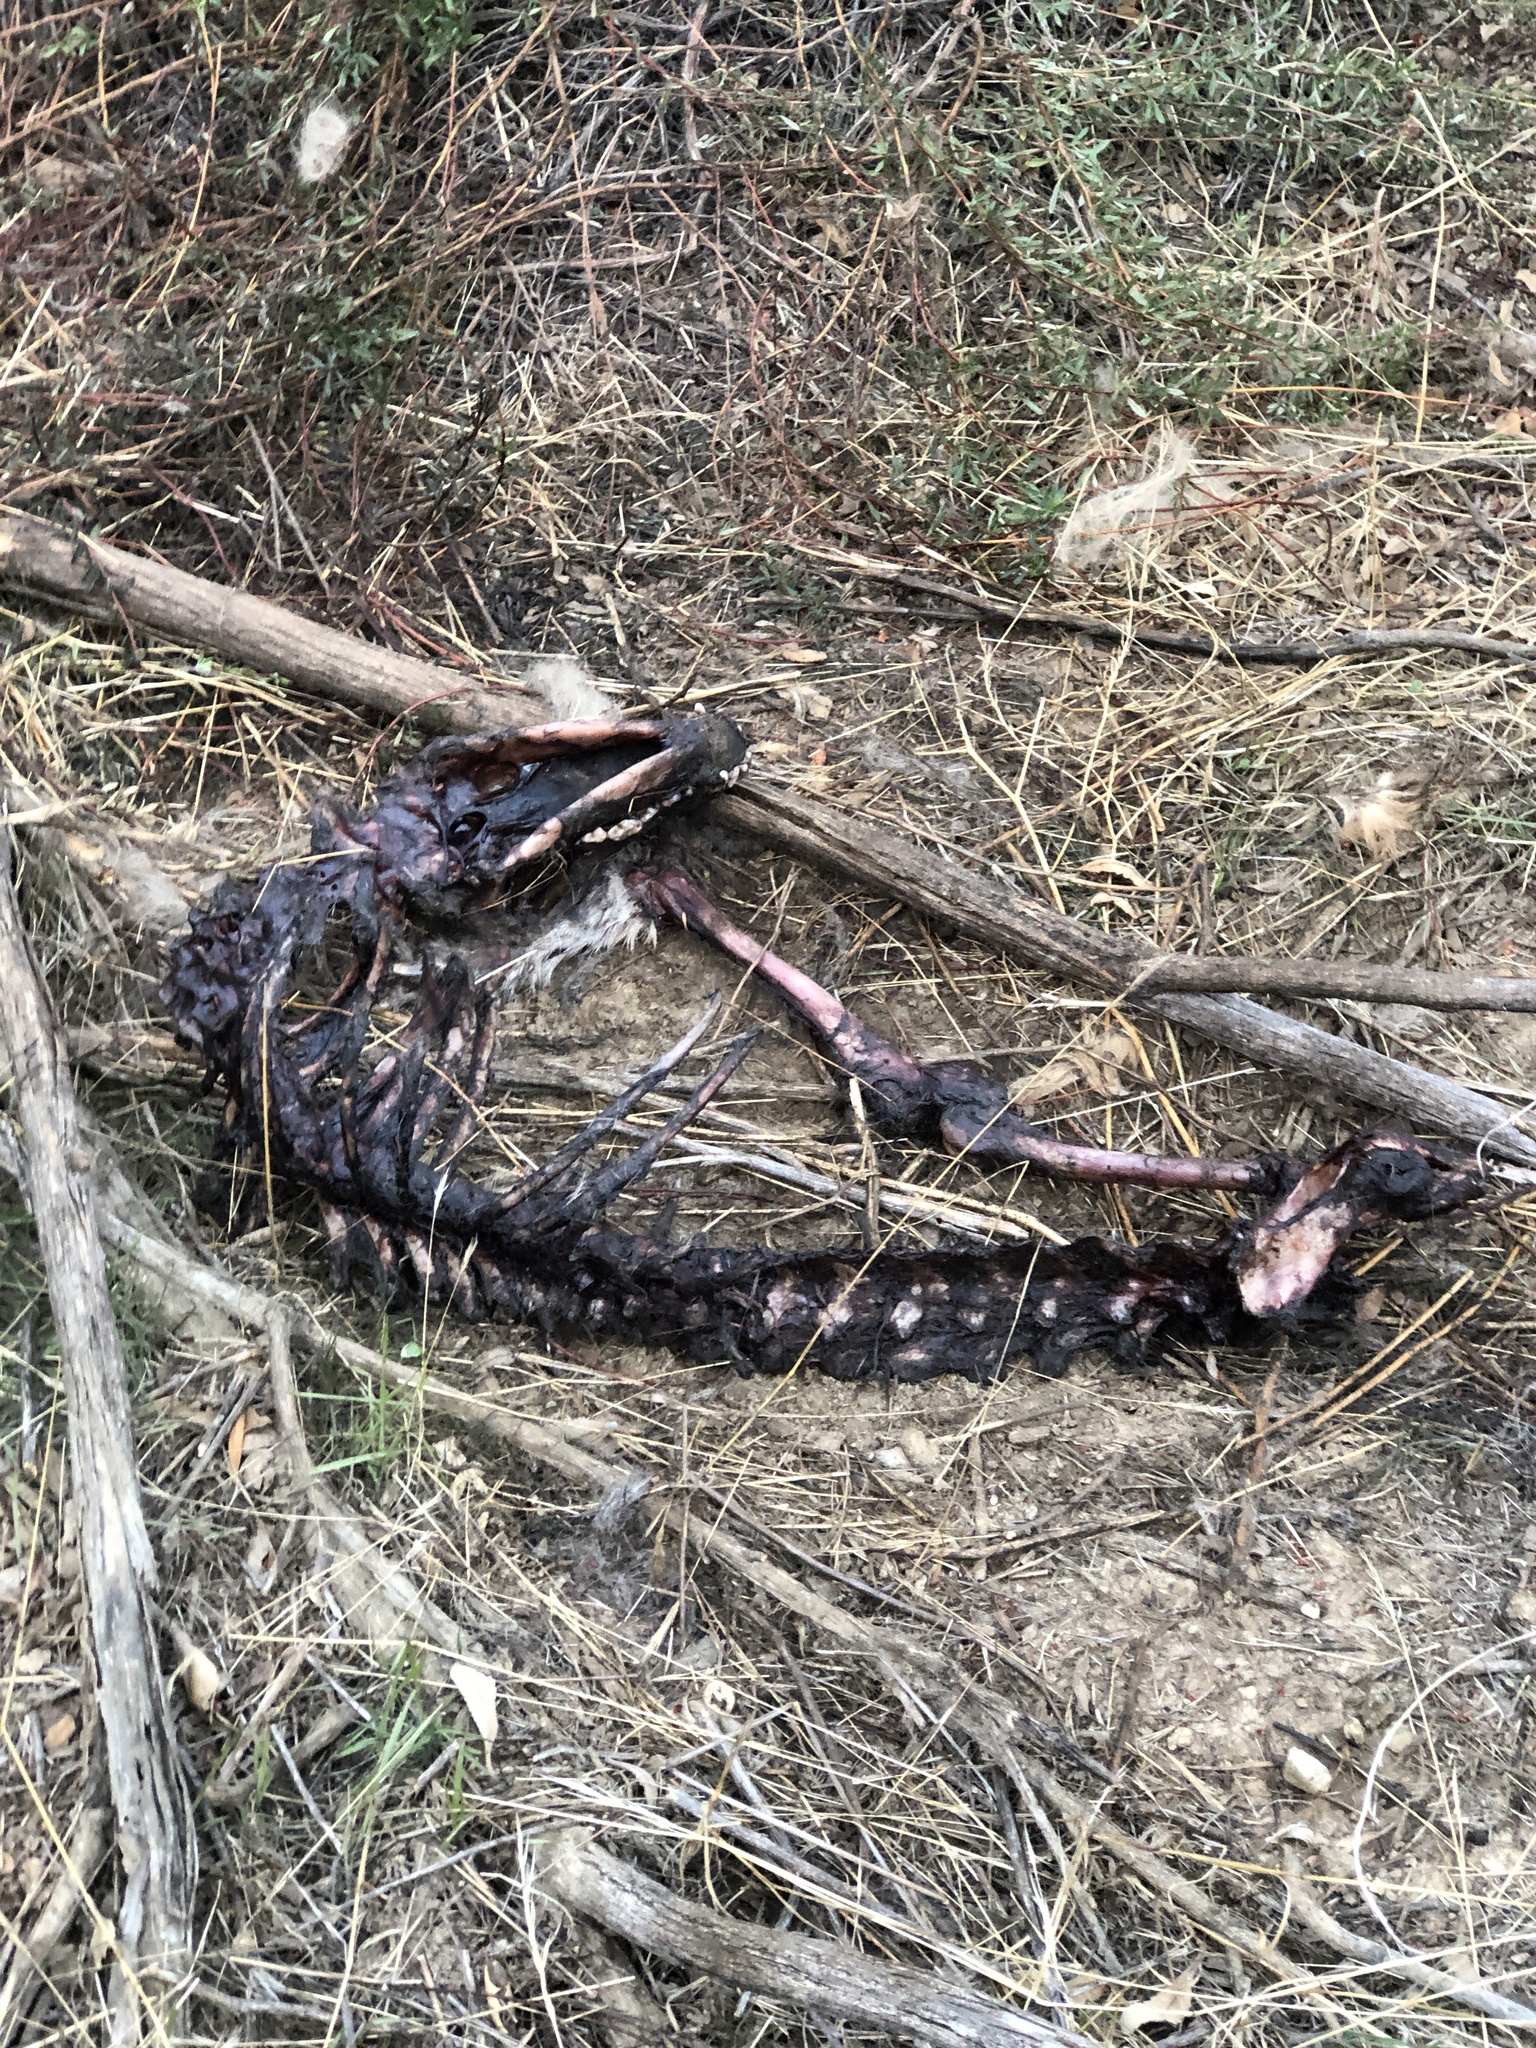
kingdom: Animalia
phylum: Chordata
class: Mammalia
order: Carnivora
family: Canidae
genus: Canis
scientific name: Canis latrans
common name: Coyote
